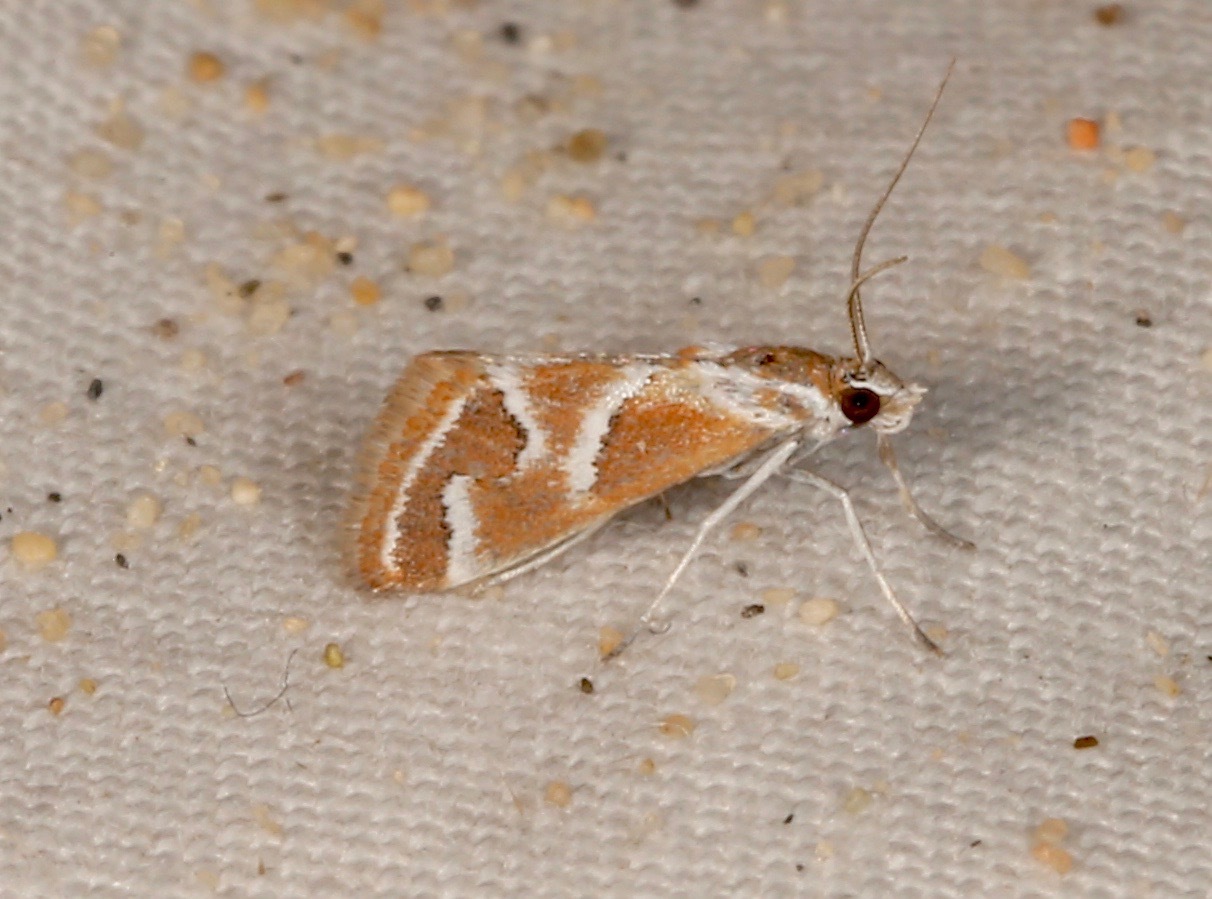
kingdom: Animalia
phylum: Arthropoda
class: Insecta
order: Lepidoptera
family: Crambidae
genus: Noctueliopsis
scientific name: Noctueliopsis virula
